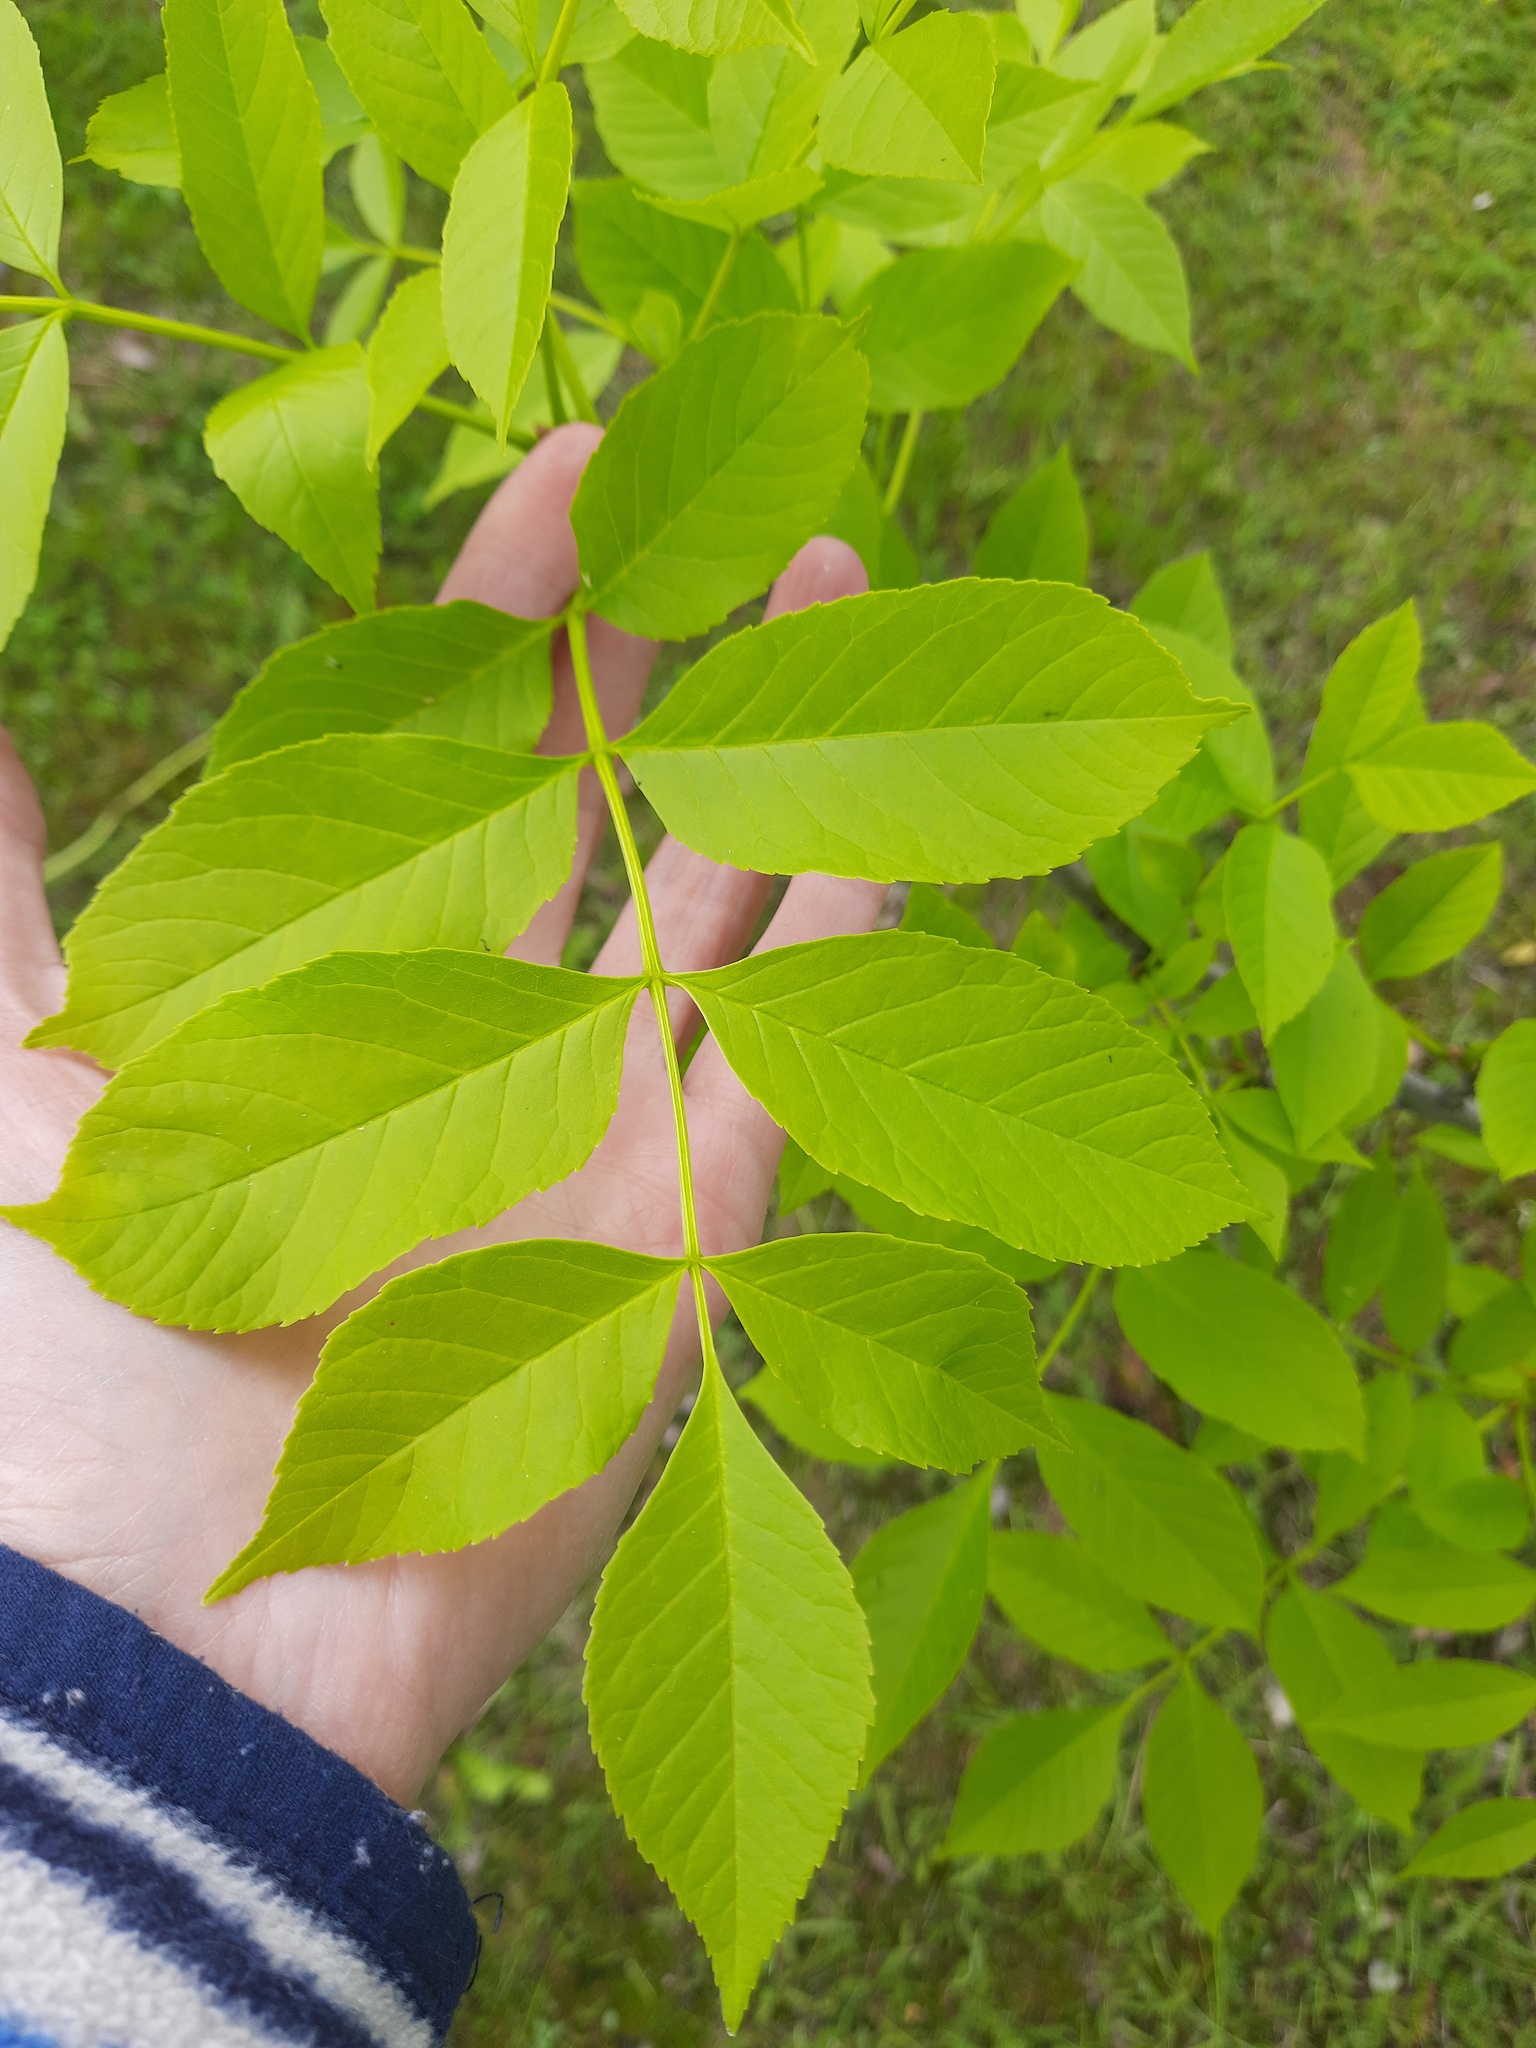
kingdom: Plantae
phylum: Tracheophyta
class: Magnoliopsida
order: Lamiales
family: Oleaceae
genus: Fraxinus
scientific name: Fraxinus pennsylvanica
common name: Green ash
